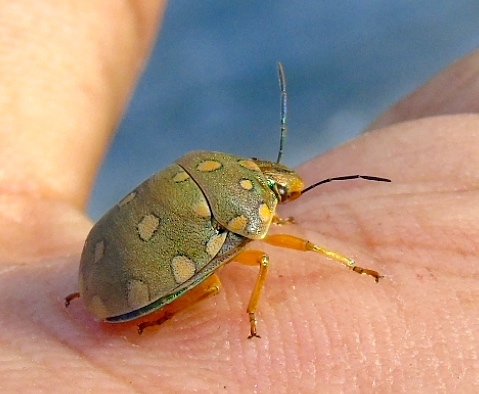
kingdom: Animalia
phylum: Arthropoda
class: Insecta
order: Hemiptera
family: Scutelleridae
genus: Pachycoris
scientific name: Pachycoris torridus
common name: Torrid jewel bug
